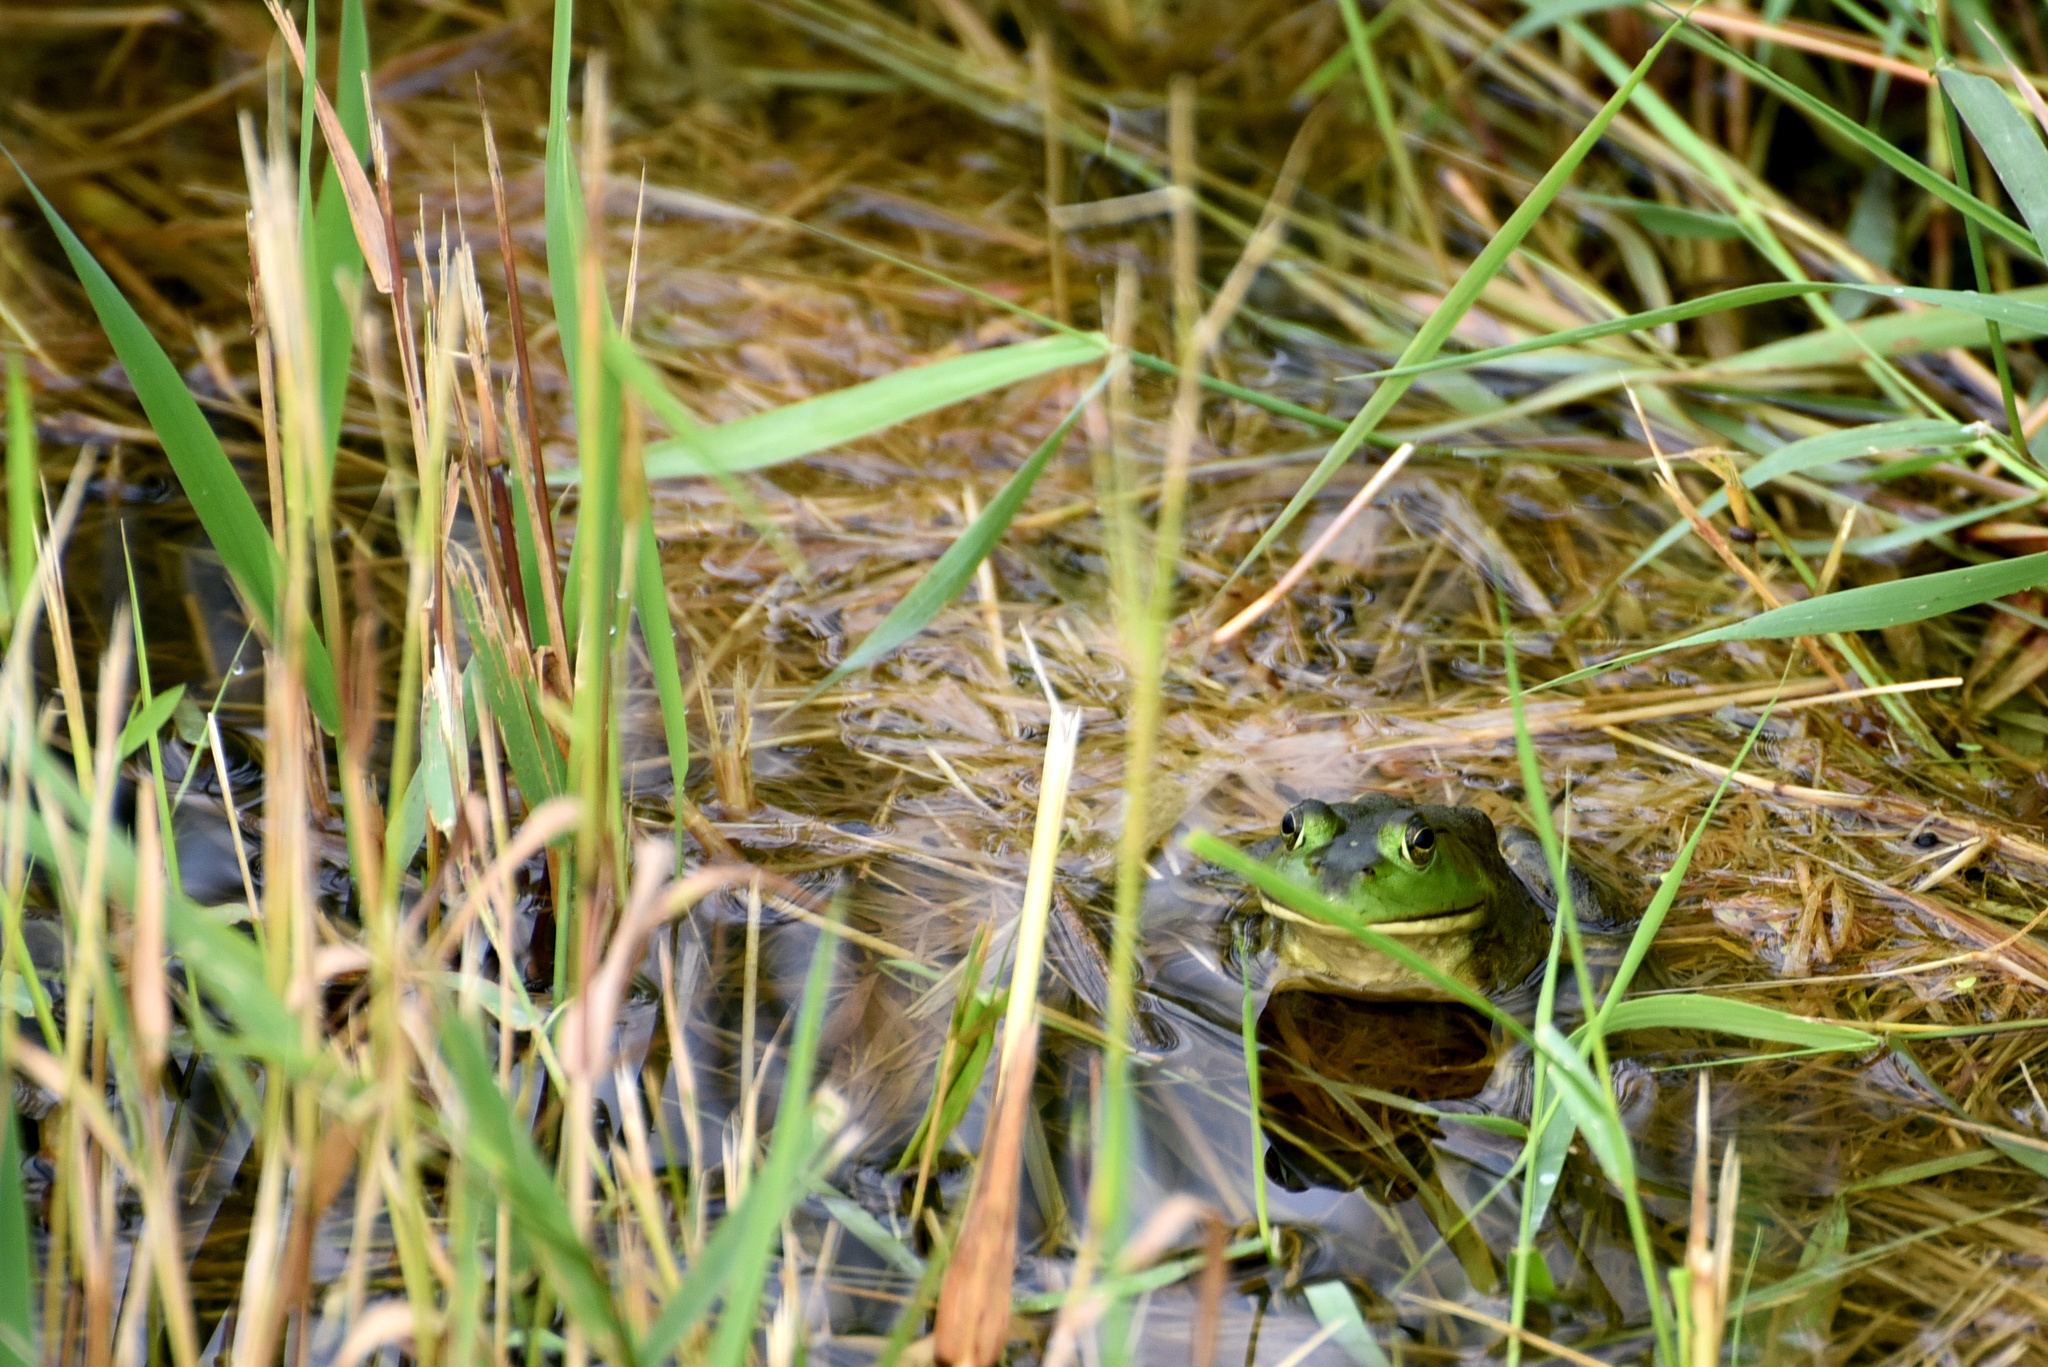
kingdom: Animalia
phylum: Chordata
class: Amphibia
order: Anura
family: Ranidae
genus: Lithobates
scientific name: Lithobates catesbeianus
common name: American bullfrog
